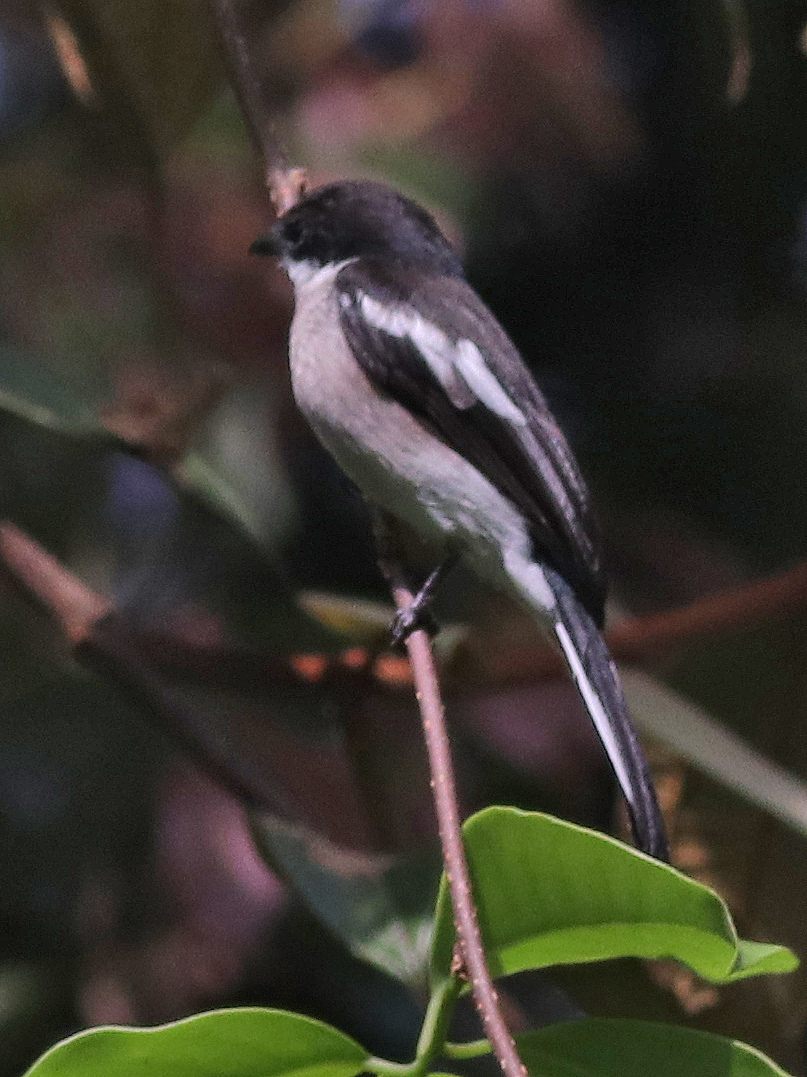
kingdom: Animalia
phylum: Chordata
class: Aves
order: Passeriformes
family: Tephrodornithidae
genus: Hemipus
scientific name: Hemipus picatus
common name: Bar-winged flycatcher-shrike
